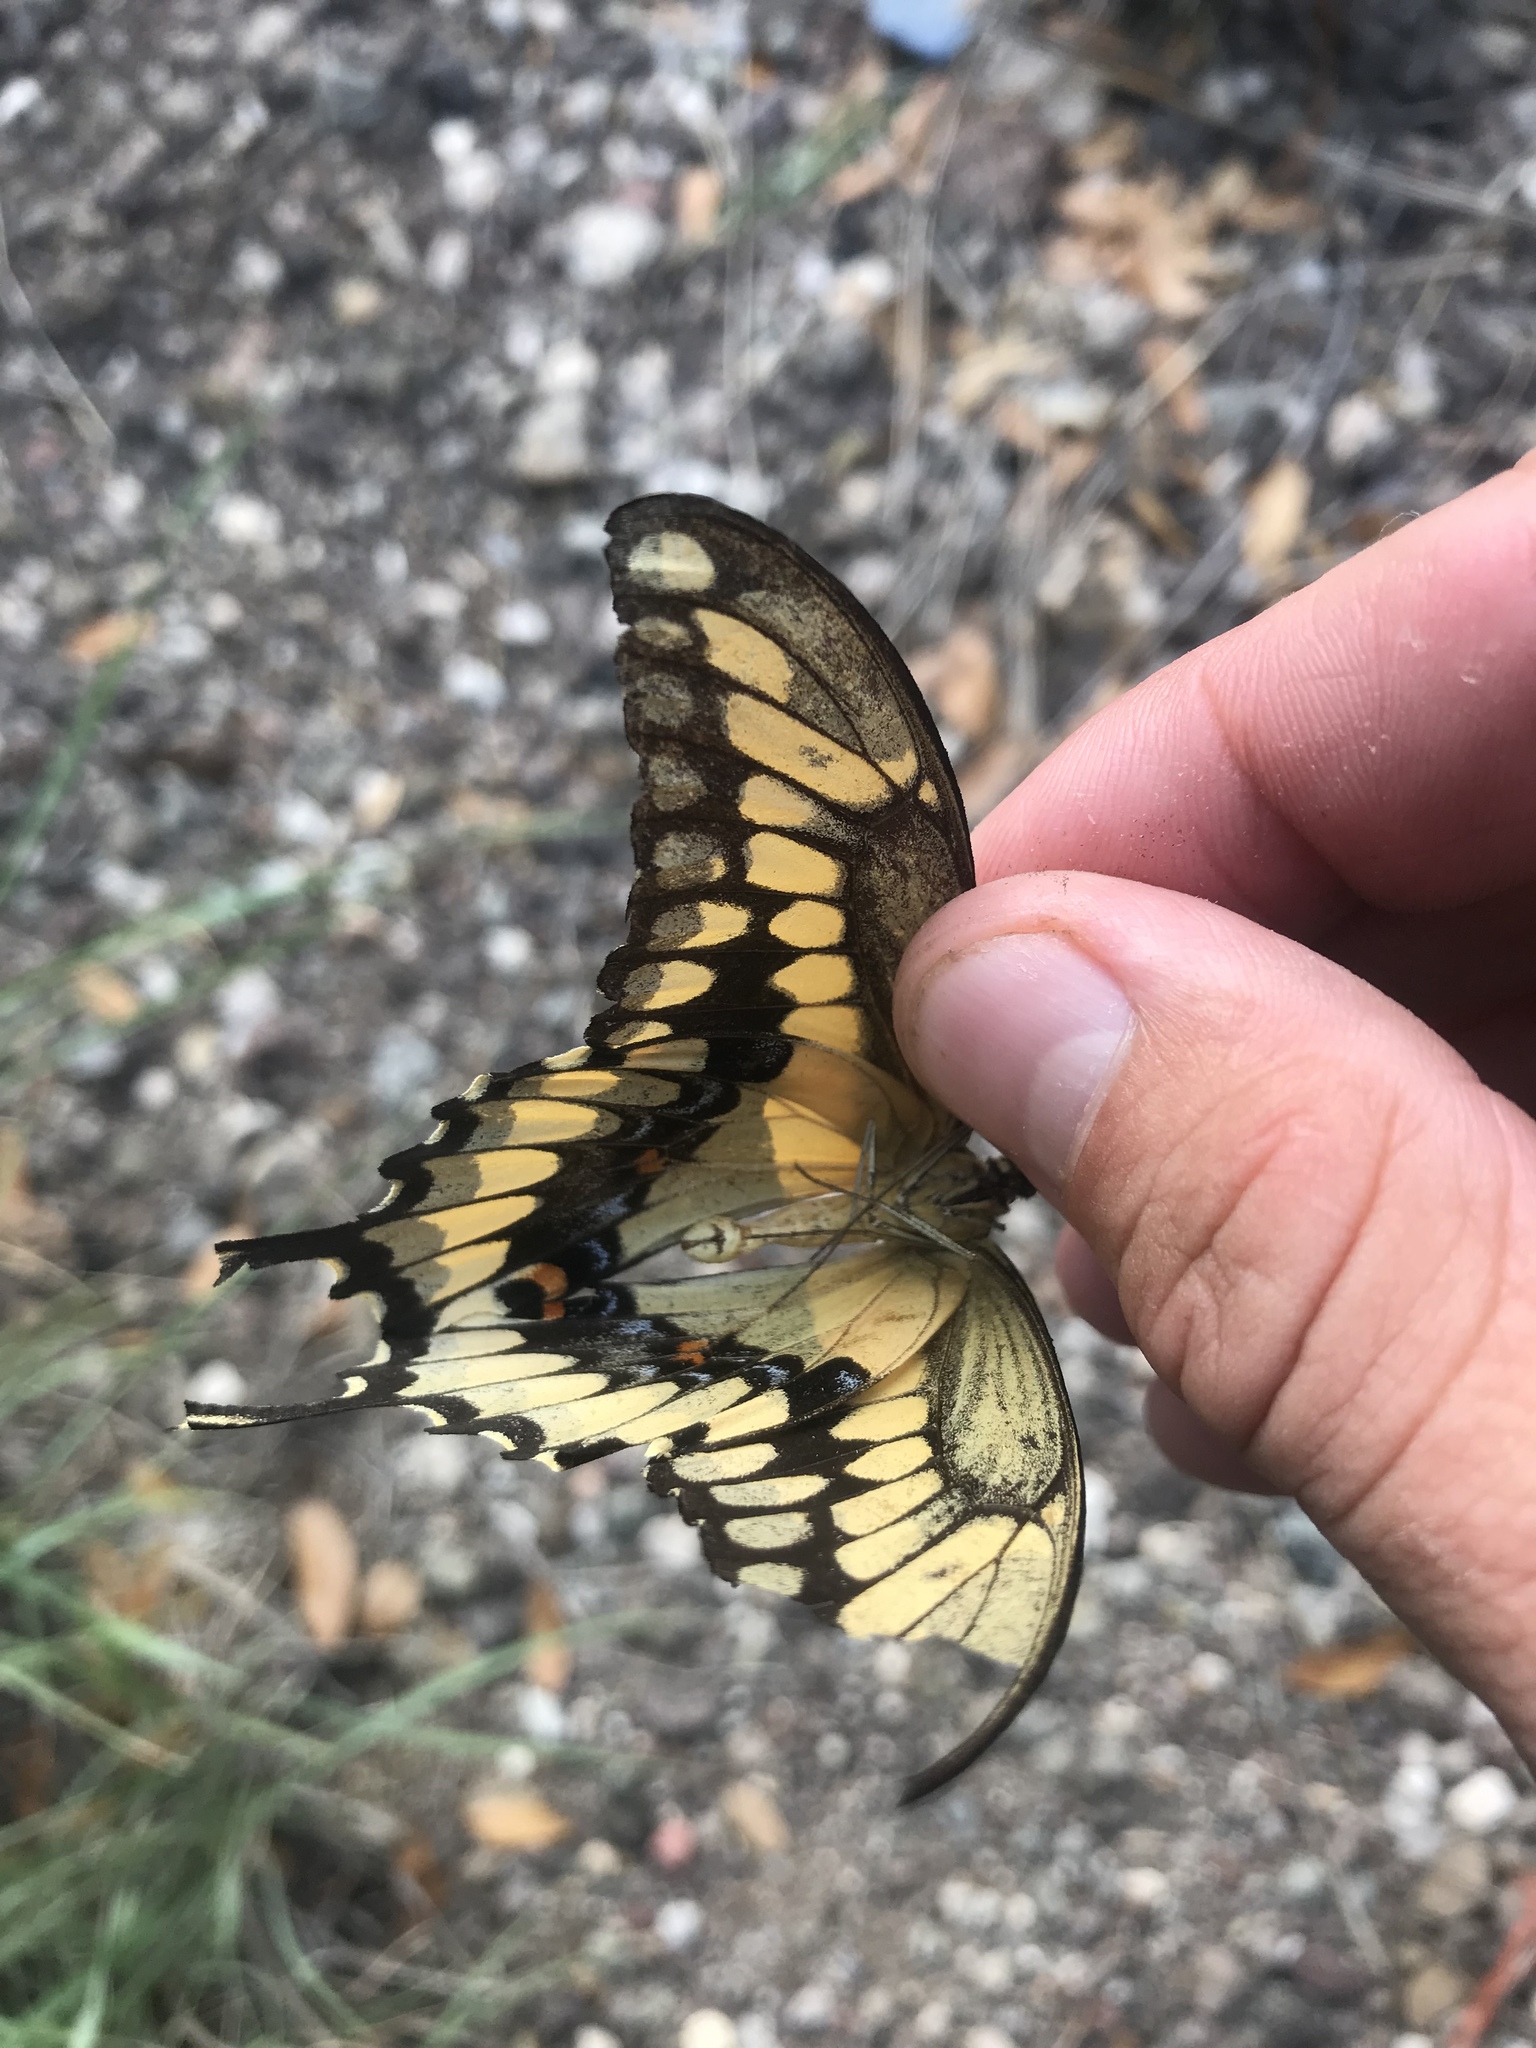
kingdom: Animalia
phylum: Arthropoda
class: Insecta
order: Lepidoptera
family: Papilionidae
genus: Papilio
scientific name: Papilio rumiko
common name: Western giant swallowtail
